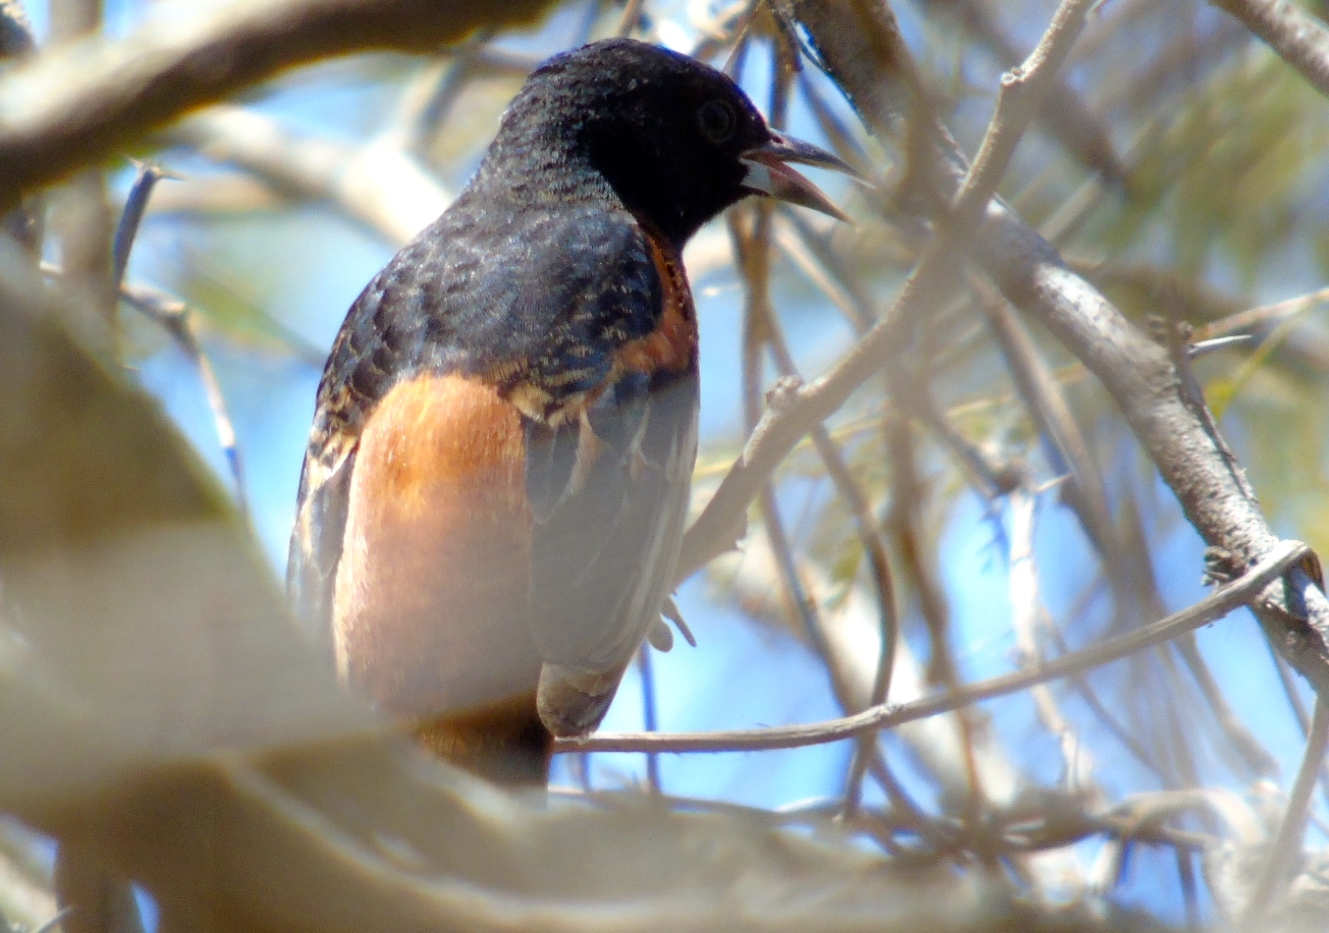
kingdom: Animalia
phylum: Chordata
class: Aves
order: Passeriformes
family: Icteridae
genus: Icterus
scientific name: Icterus spurius
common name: Orchard oriole
